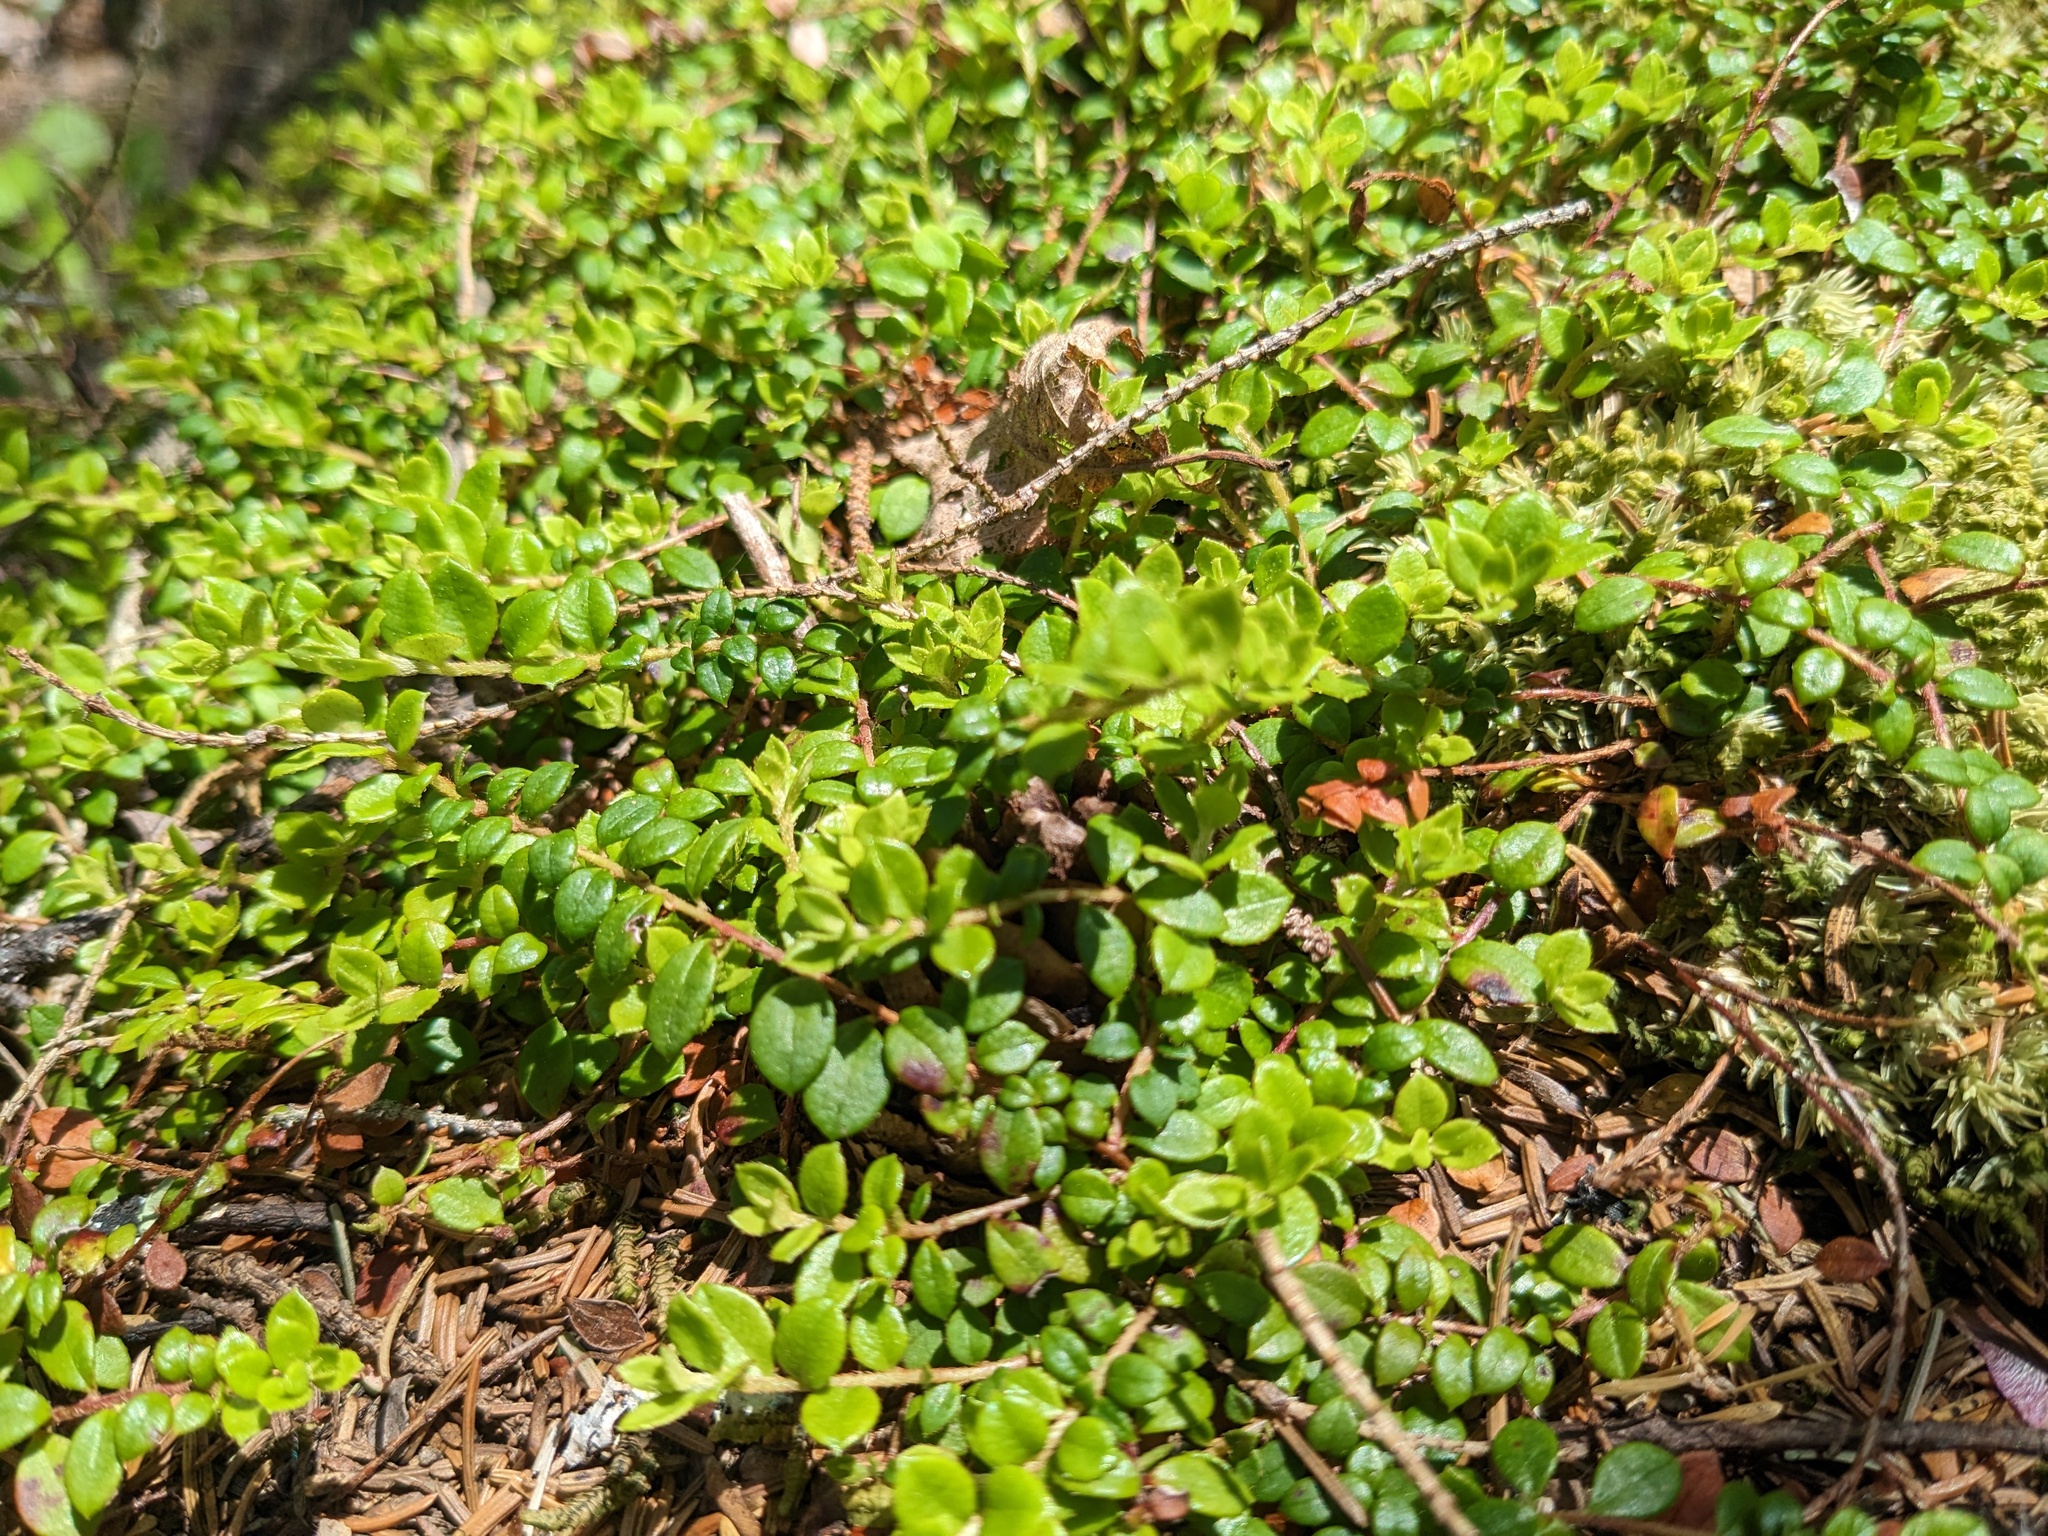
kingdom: Plantae
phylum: Tracheophyta
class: Magnoliopsida
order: Ericales
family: Ericaceae
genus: Gaultheria
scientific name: Gaultheria hispidula
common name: Cancer wintergreen
